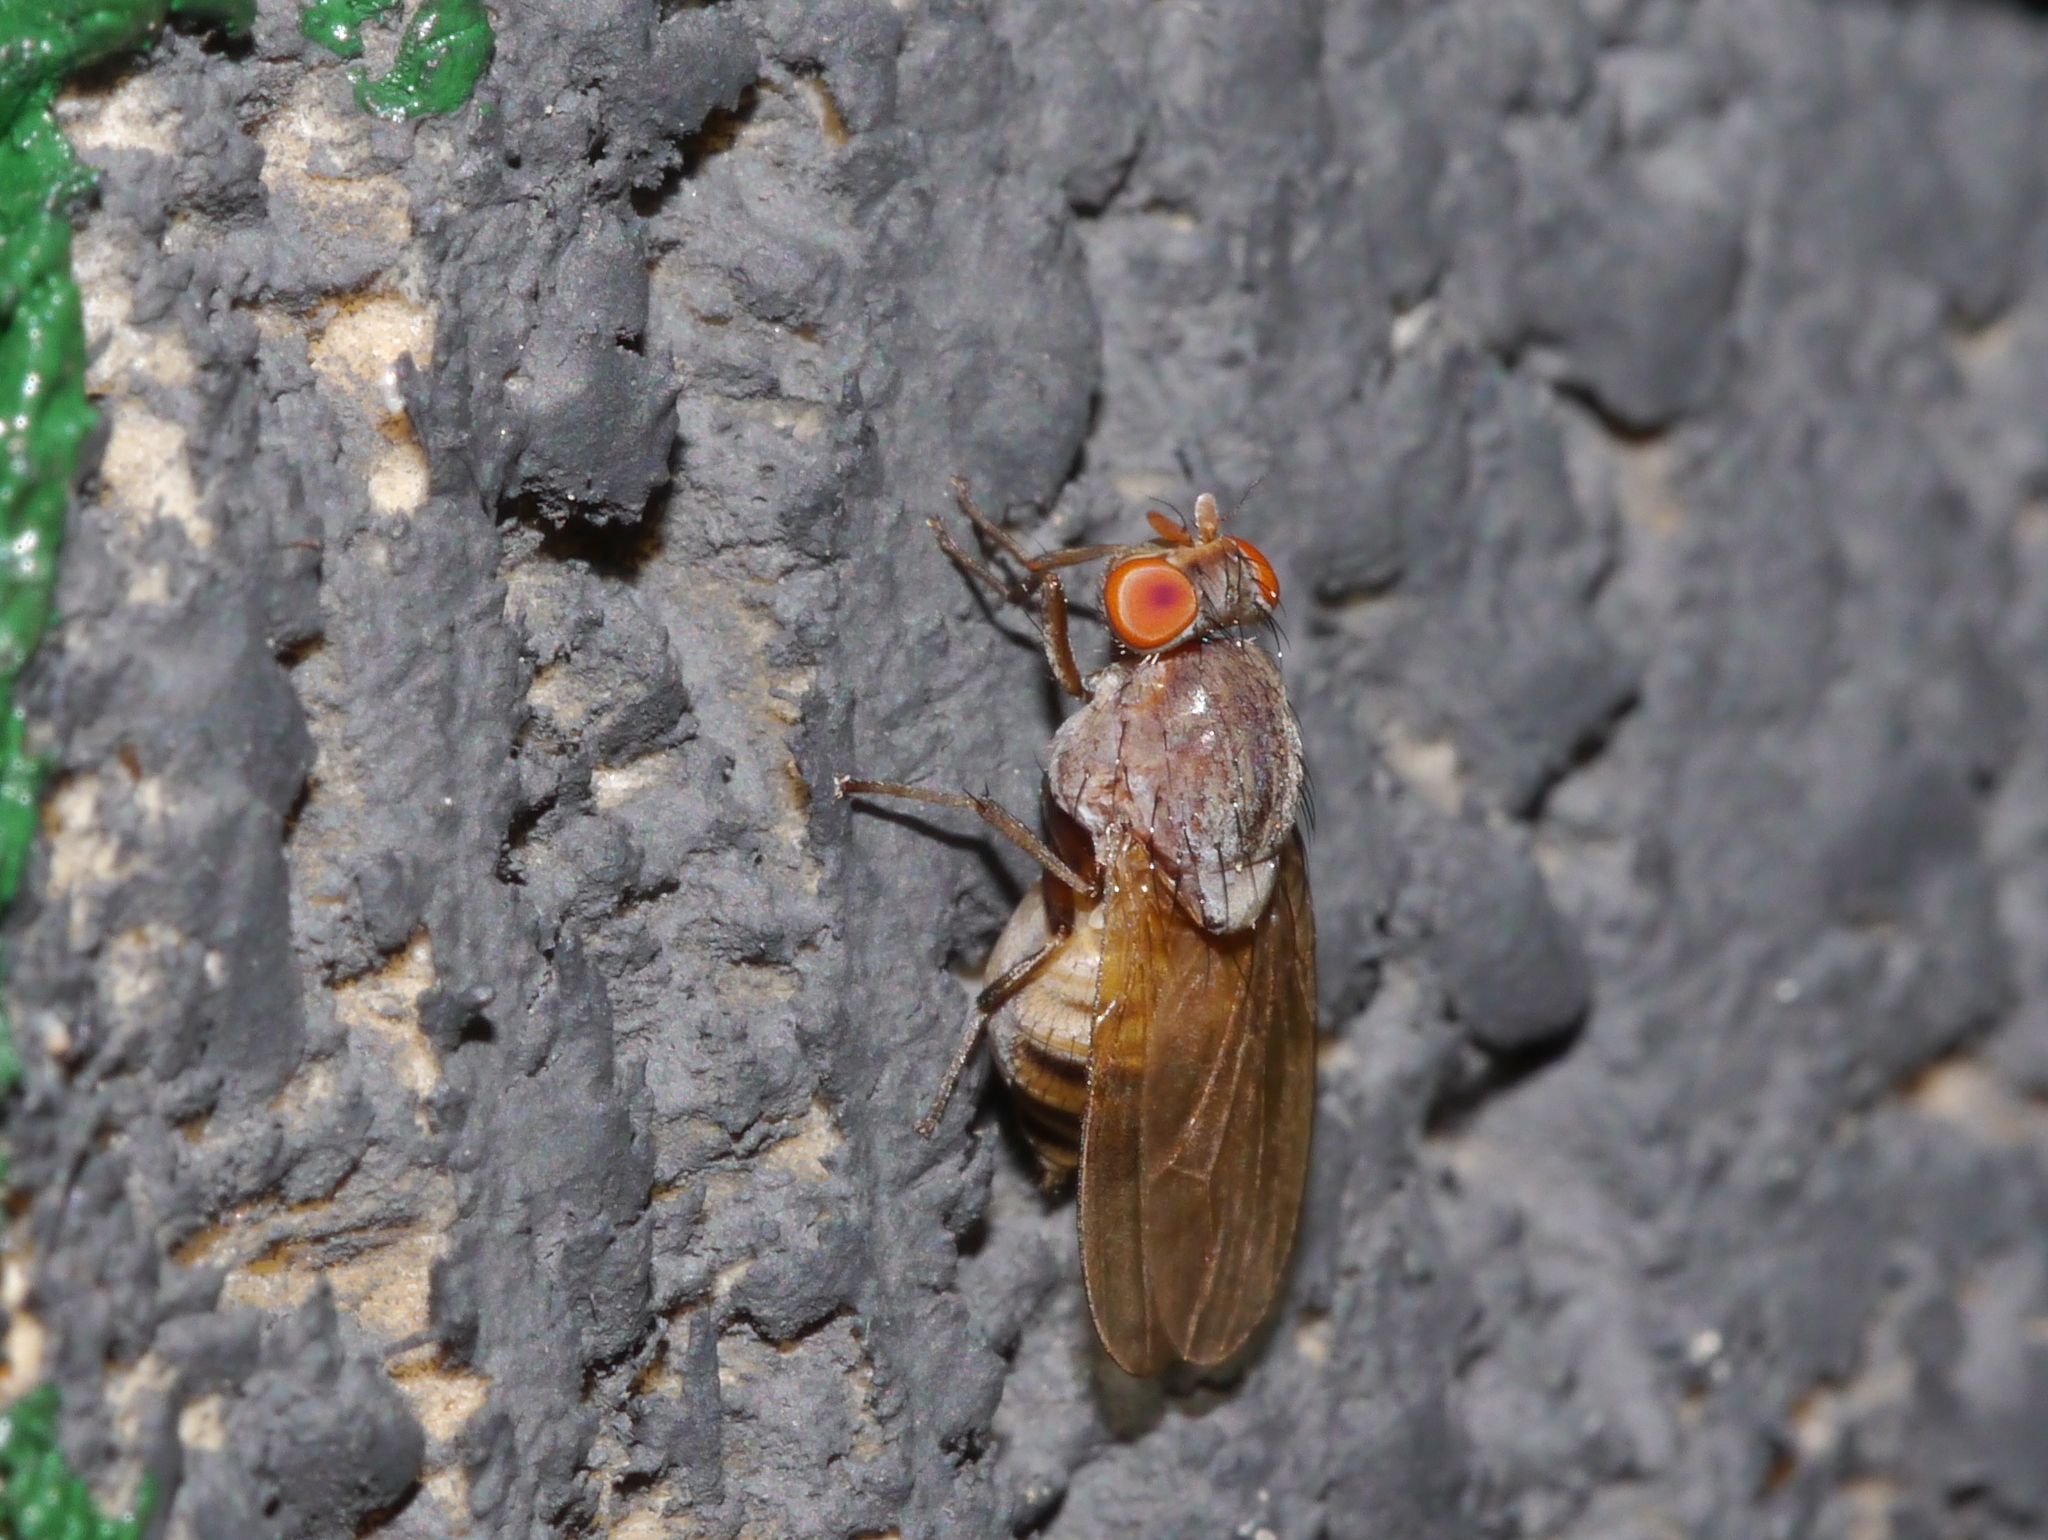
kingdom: Animalia
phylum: Arthropoda
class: Insecta
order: Diptera
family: Lauxaniidae
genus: Minettia
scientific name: Minettia magna
